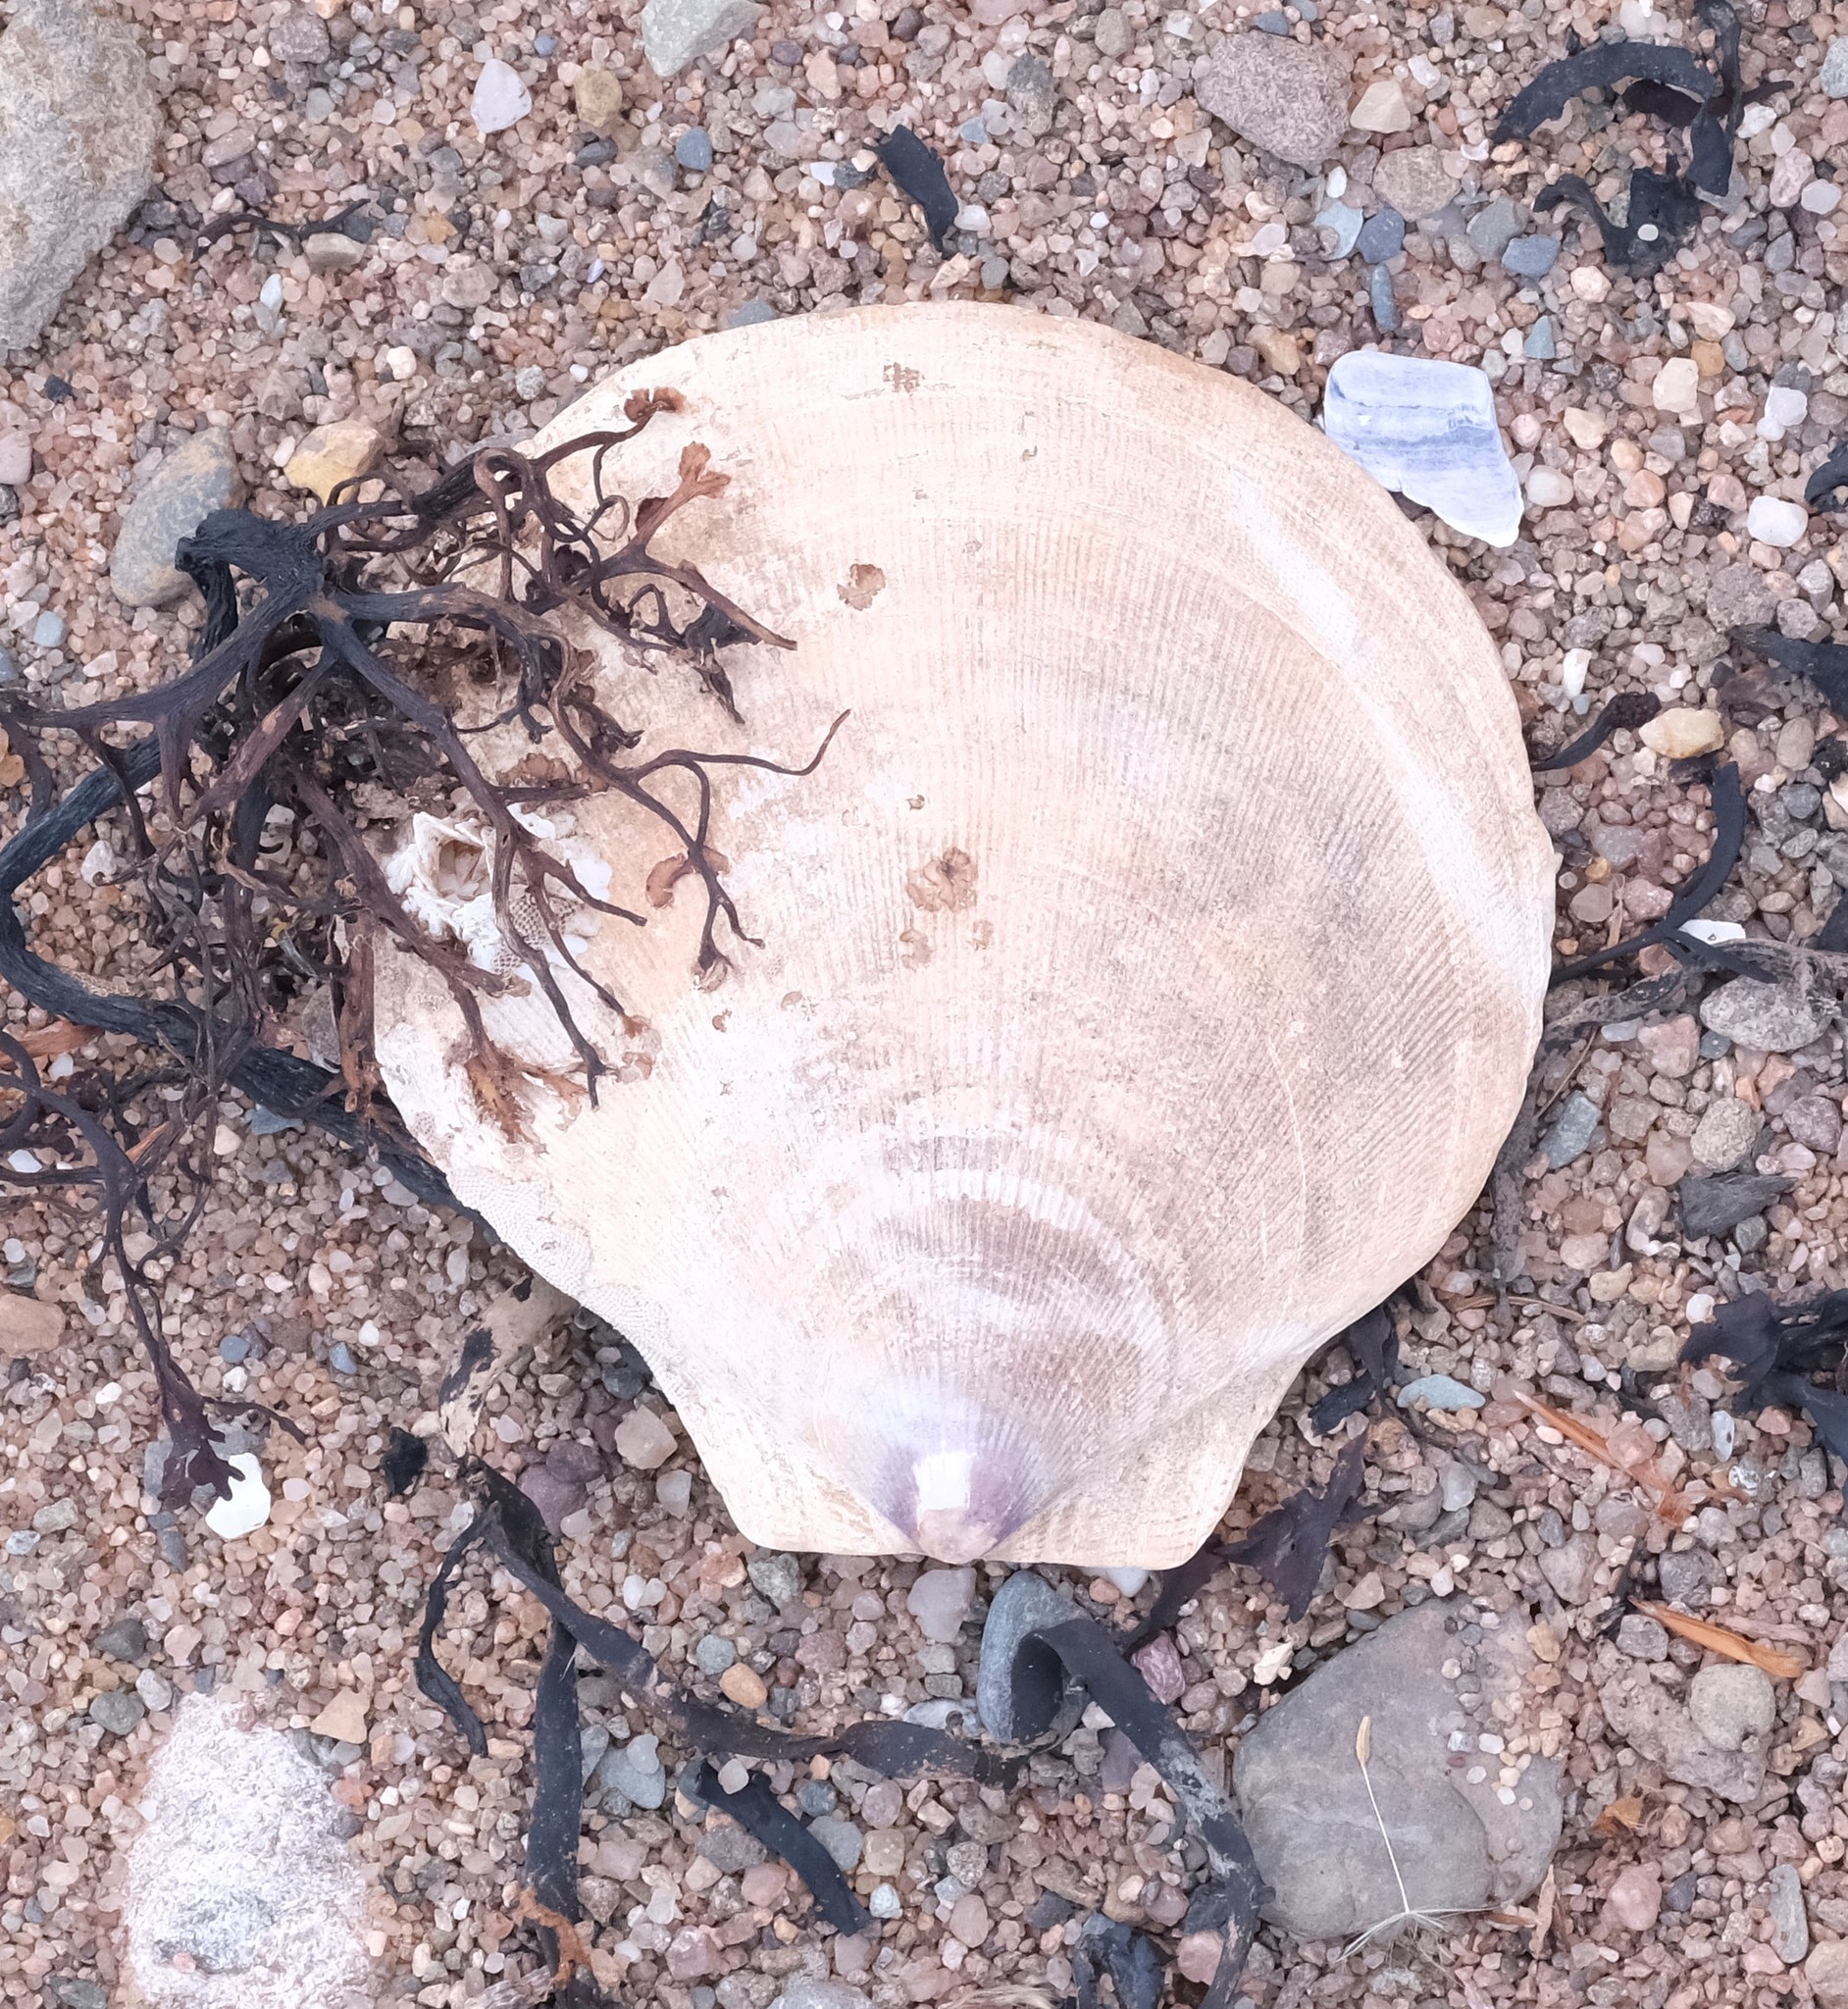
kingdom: Animalia
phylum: Mollusca
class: Bivalvia
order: Pectinida
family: Pectinidae
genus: Placopecten
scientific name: Placopecten magellanicus
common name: American sea scallop
